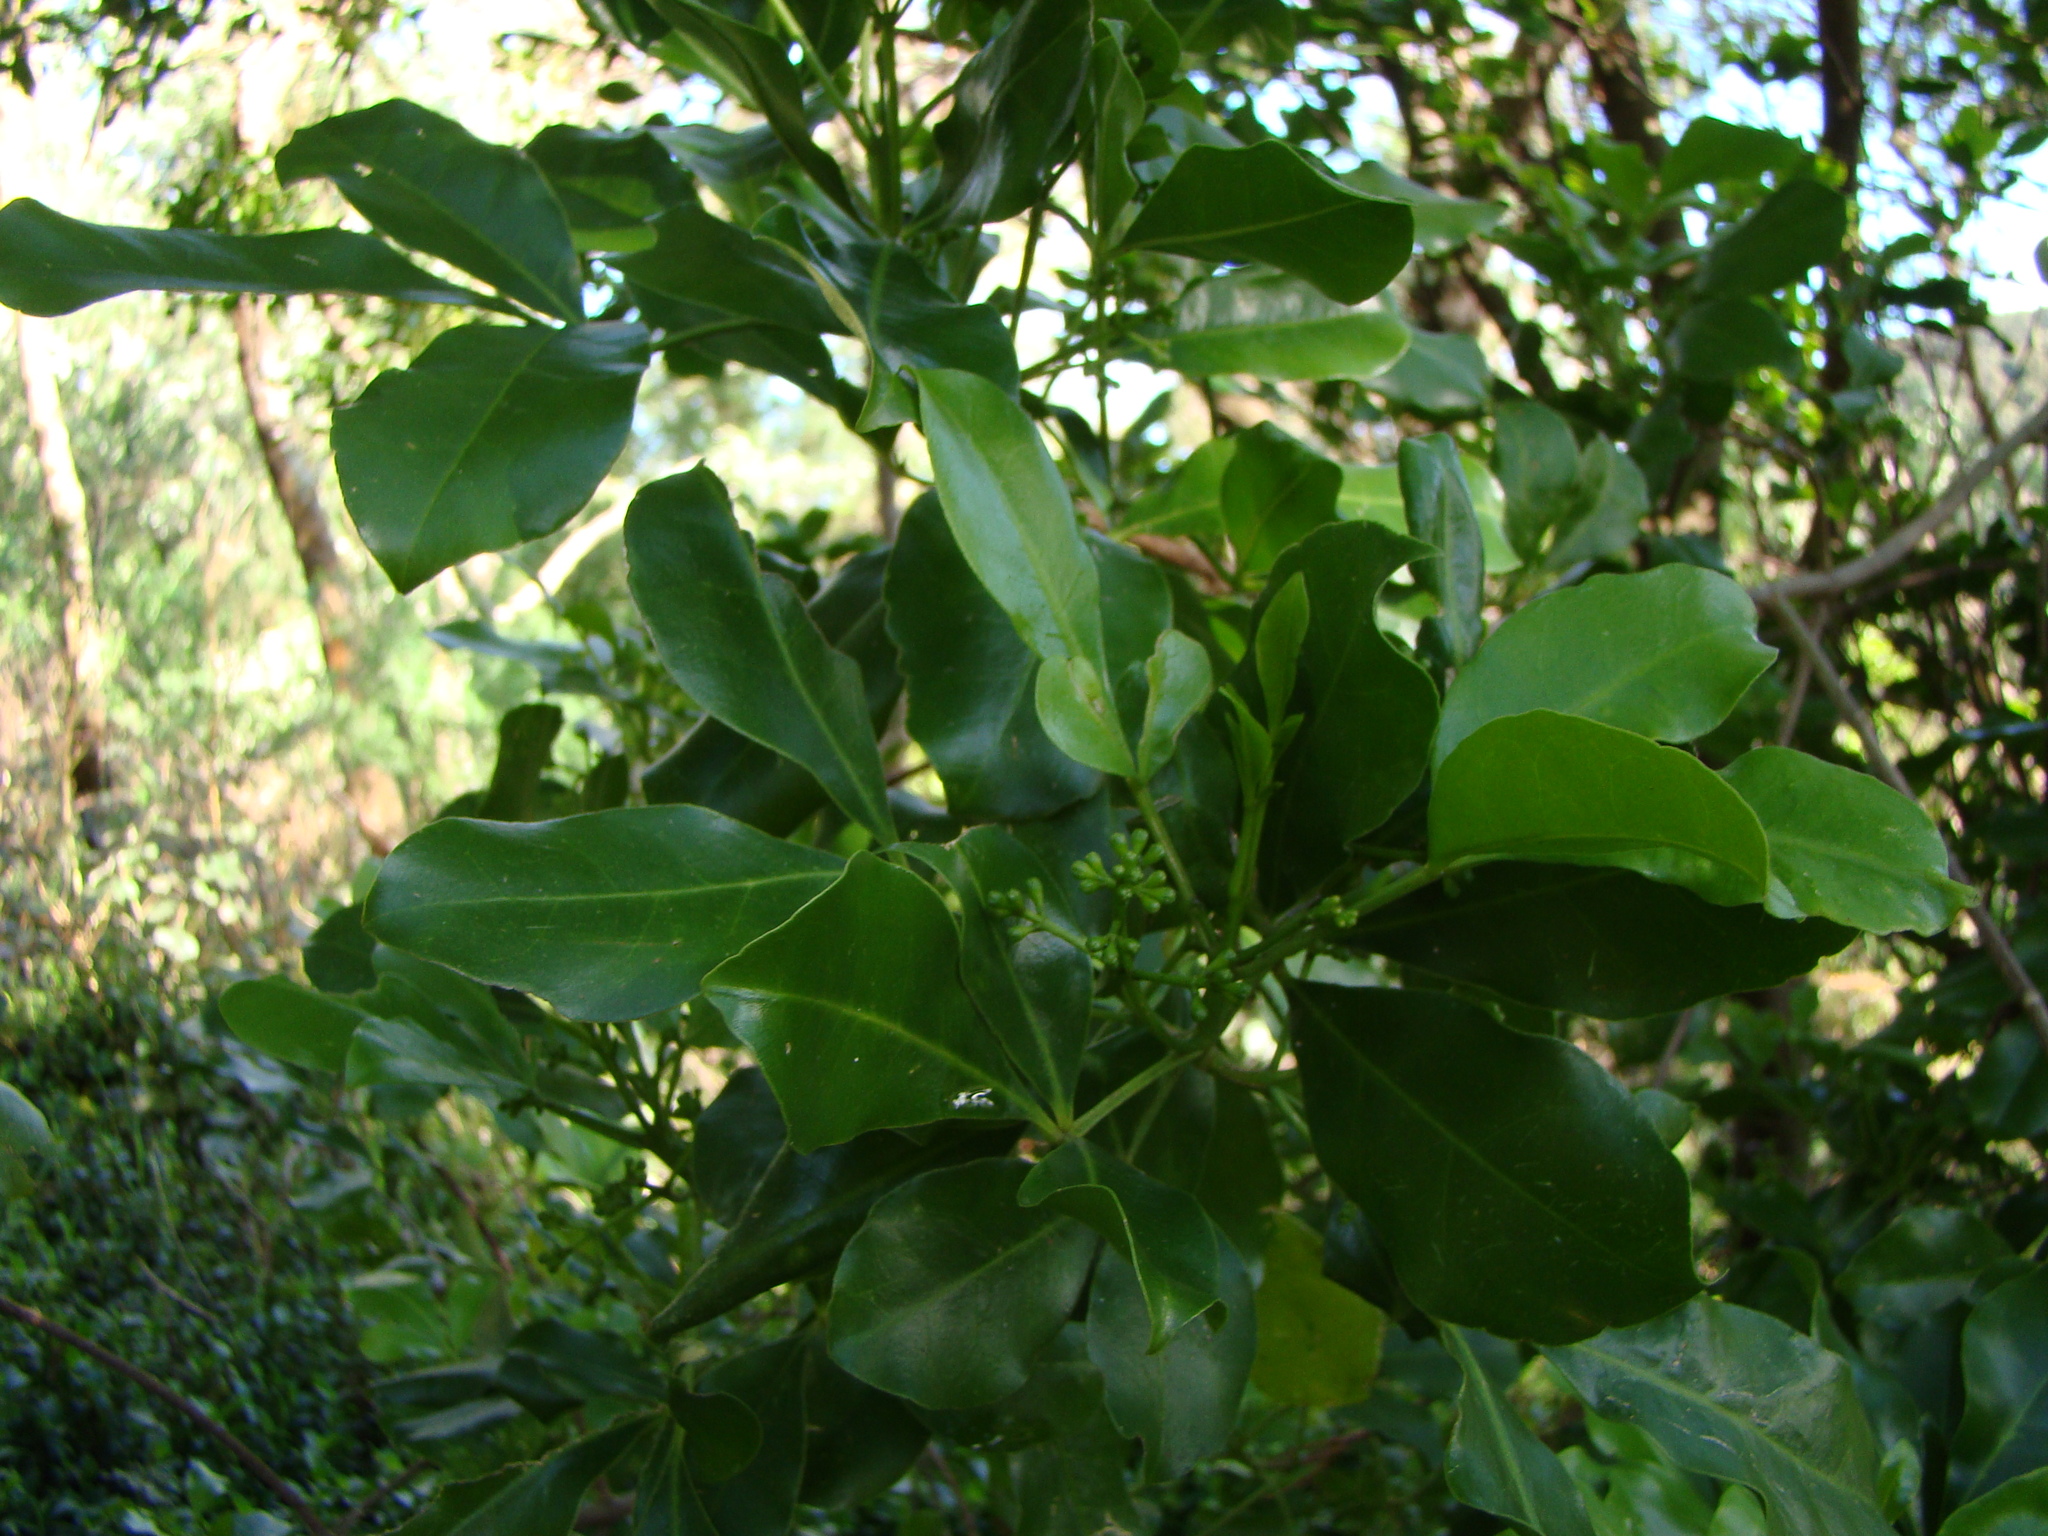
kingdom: Plantae
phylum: Tracheophyta
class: Magnoliopsida
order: Sapindales
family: Rutaceae
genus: Melicope
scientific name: Melicope ternata
